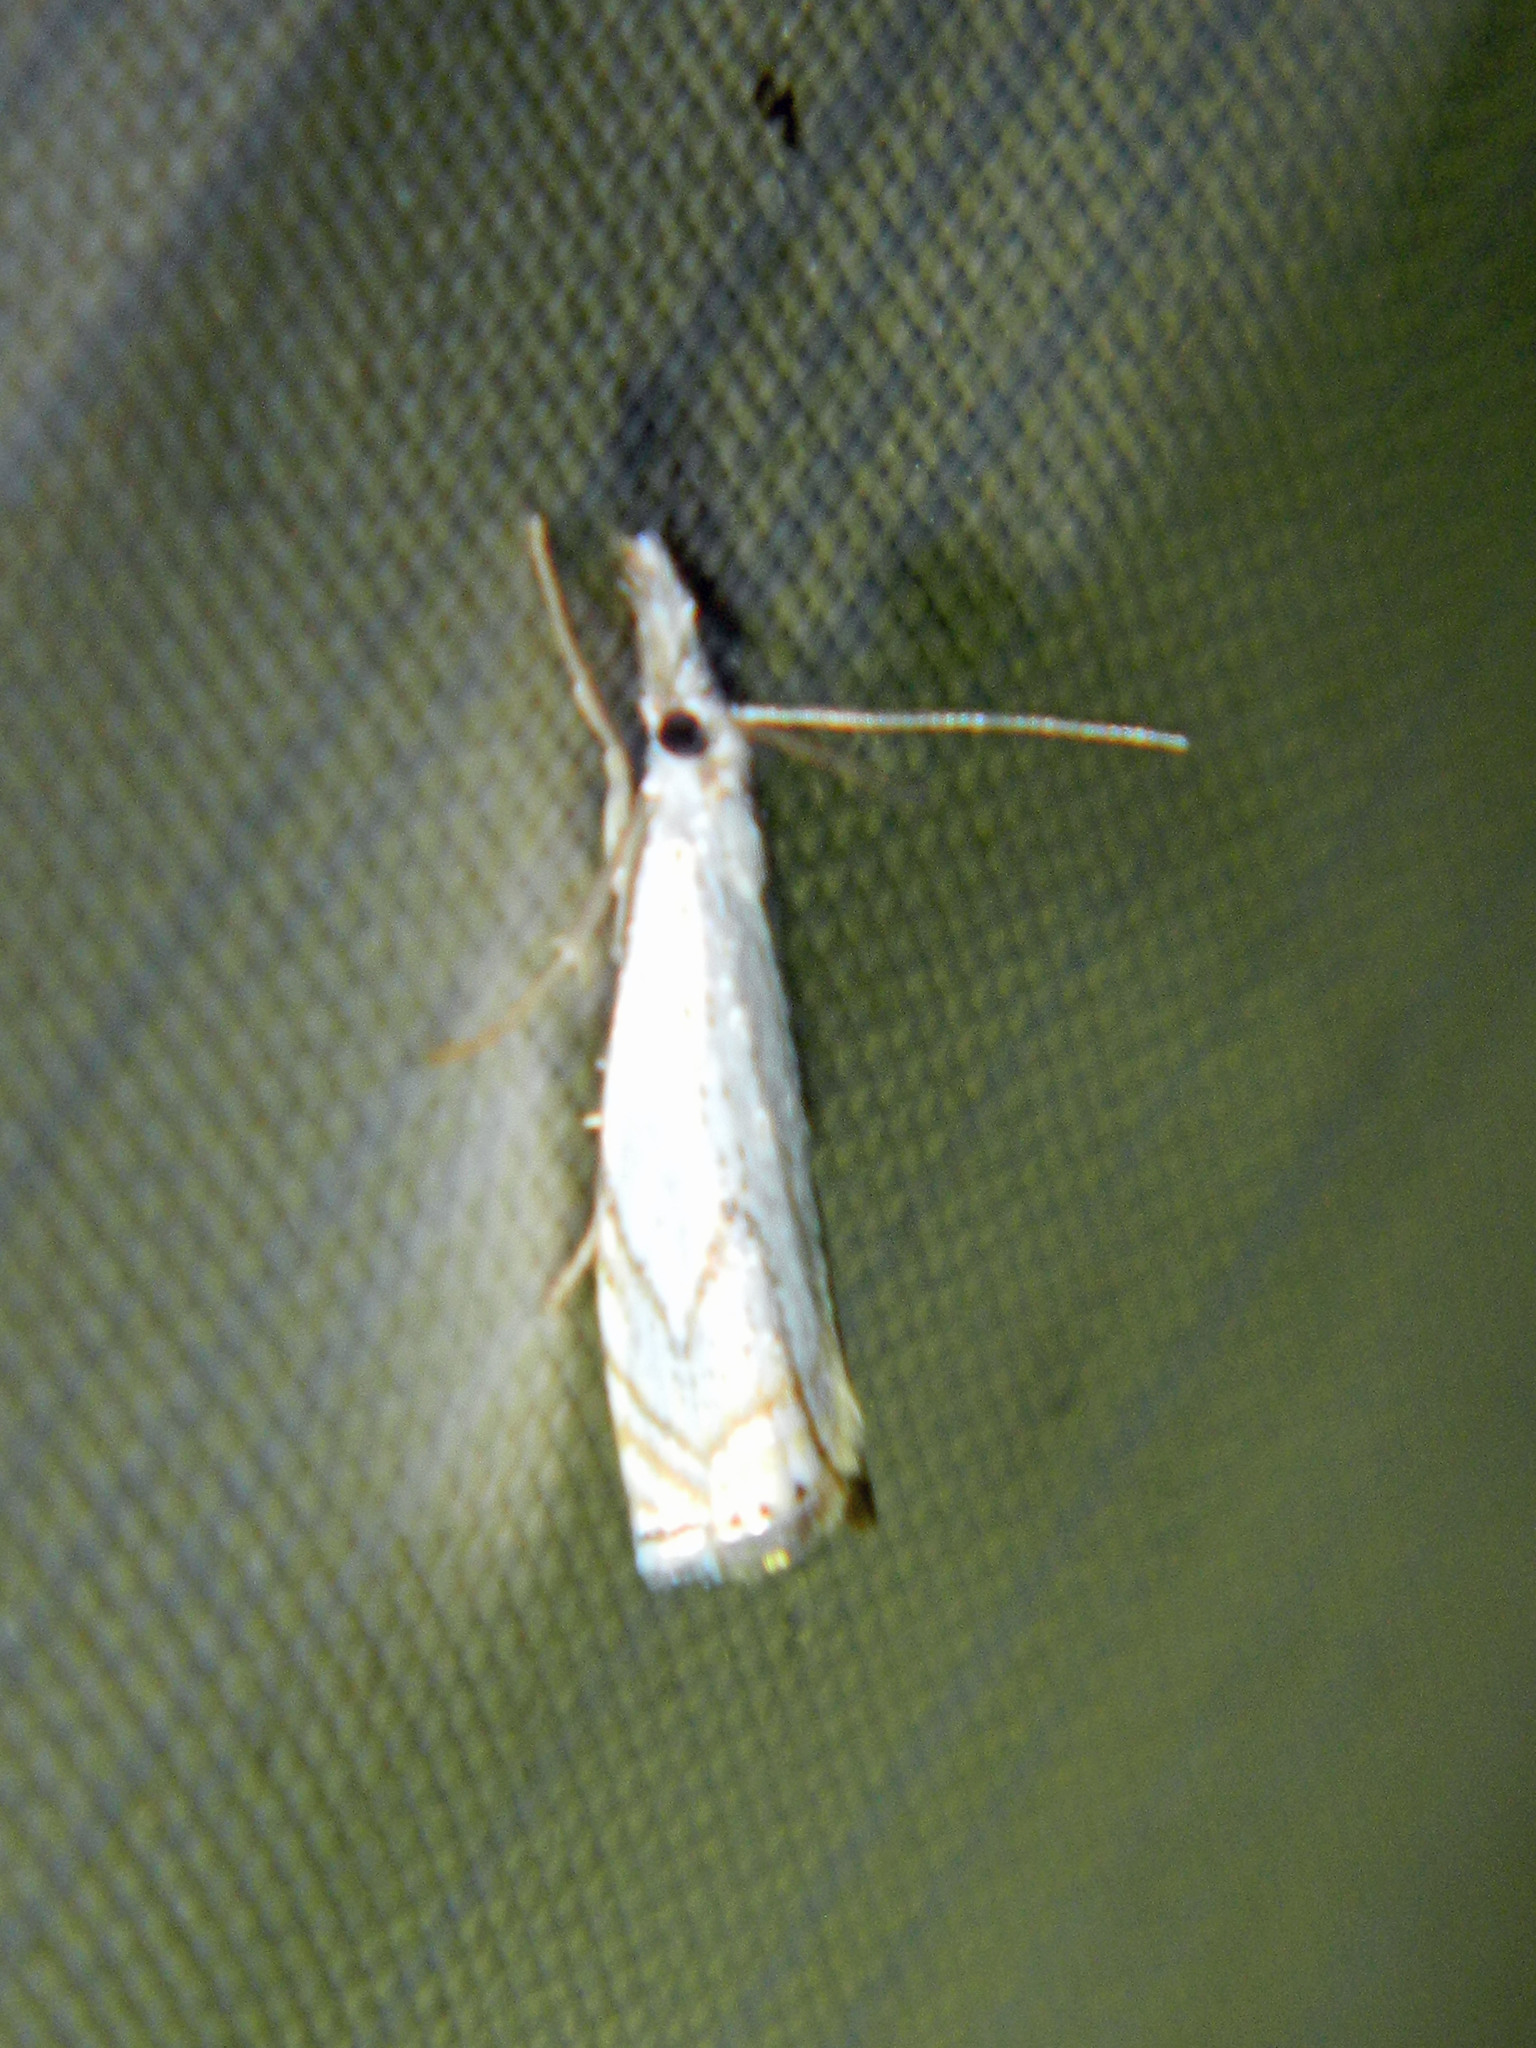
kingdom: Animalia
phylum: Arthropoda
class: Insecta
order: Lepidoptera
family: Crambidae
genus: Crambus
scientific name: Crambus albellus
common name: Small white grass-veneer
